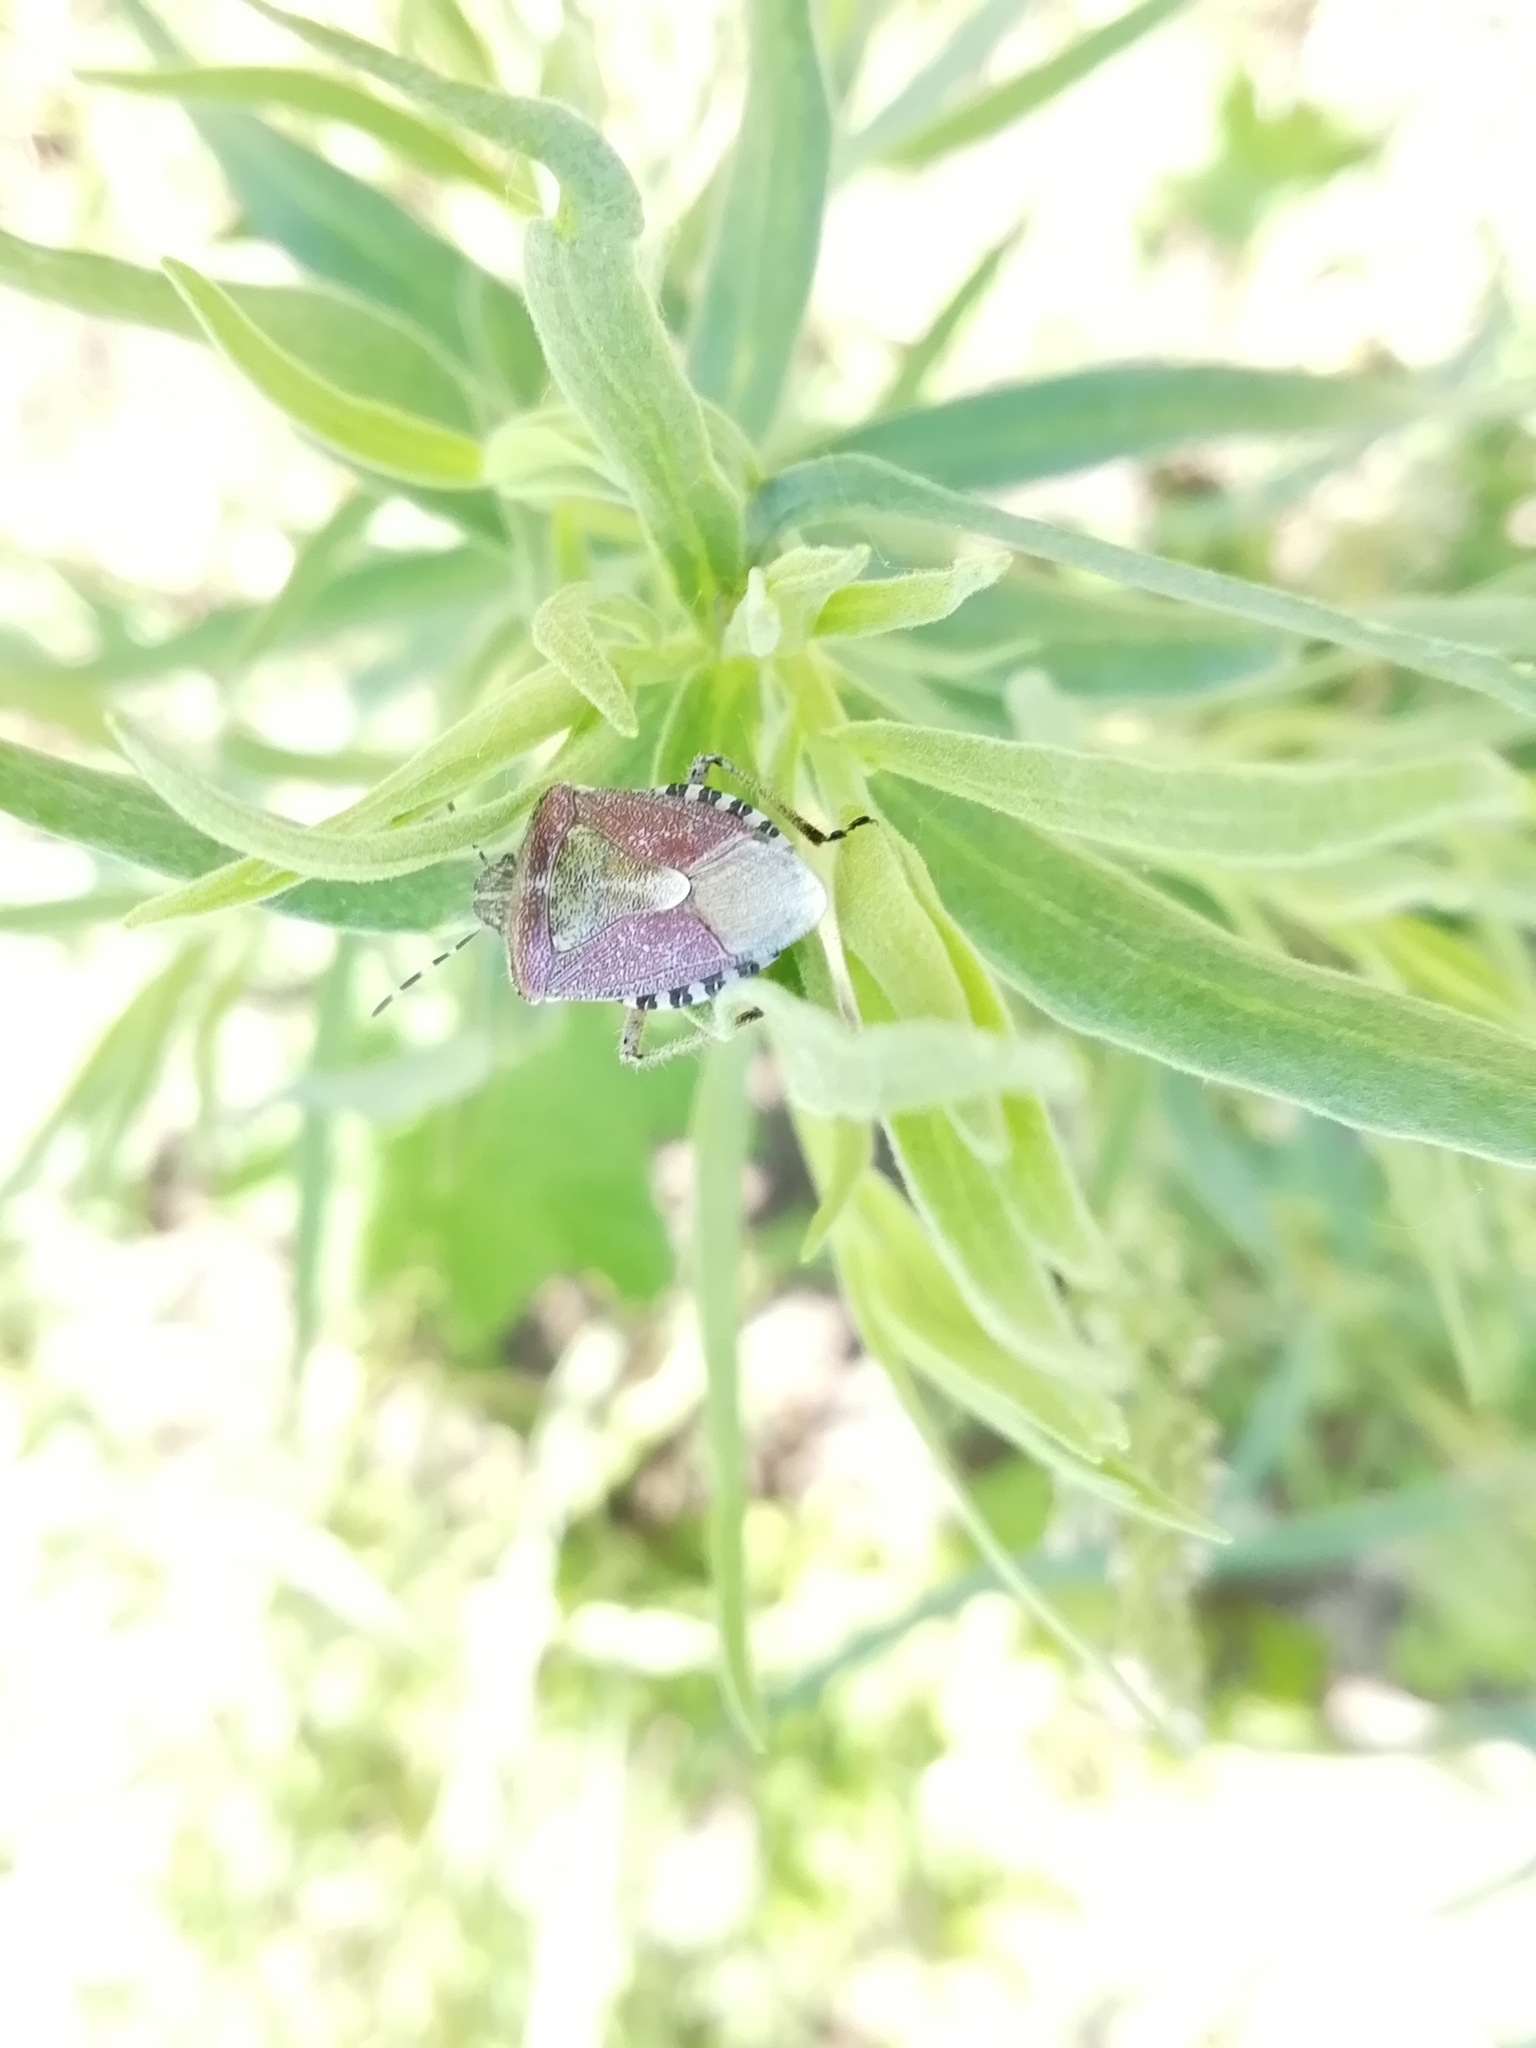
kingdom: Animalia
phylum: Arthropoda
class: Insecta
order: Hemiptera
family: Pentatomidae
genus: Dolycoris
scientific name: Dolycoris baccarum
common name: Sloe bug
